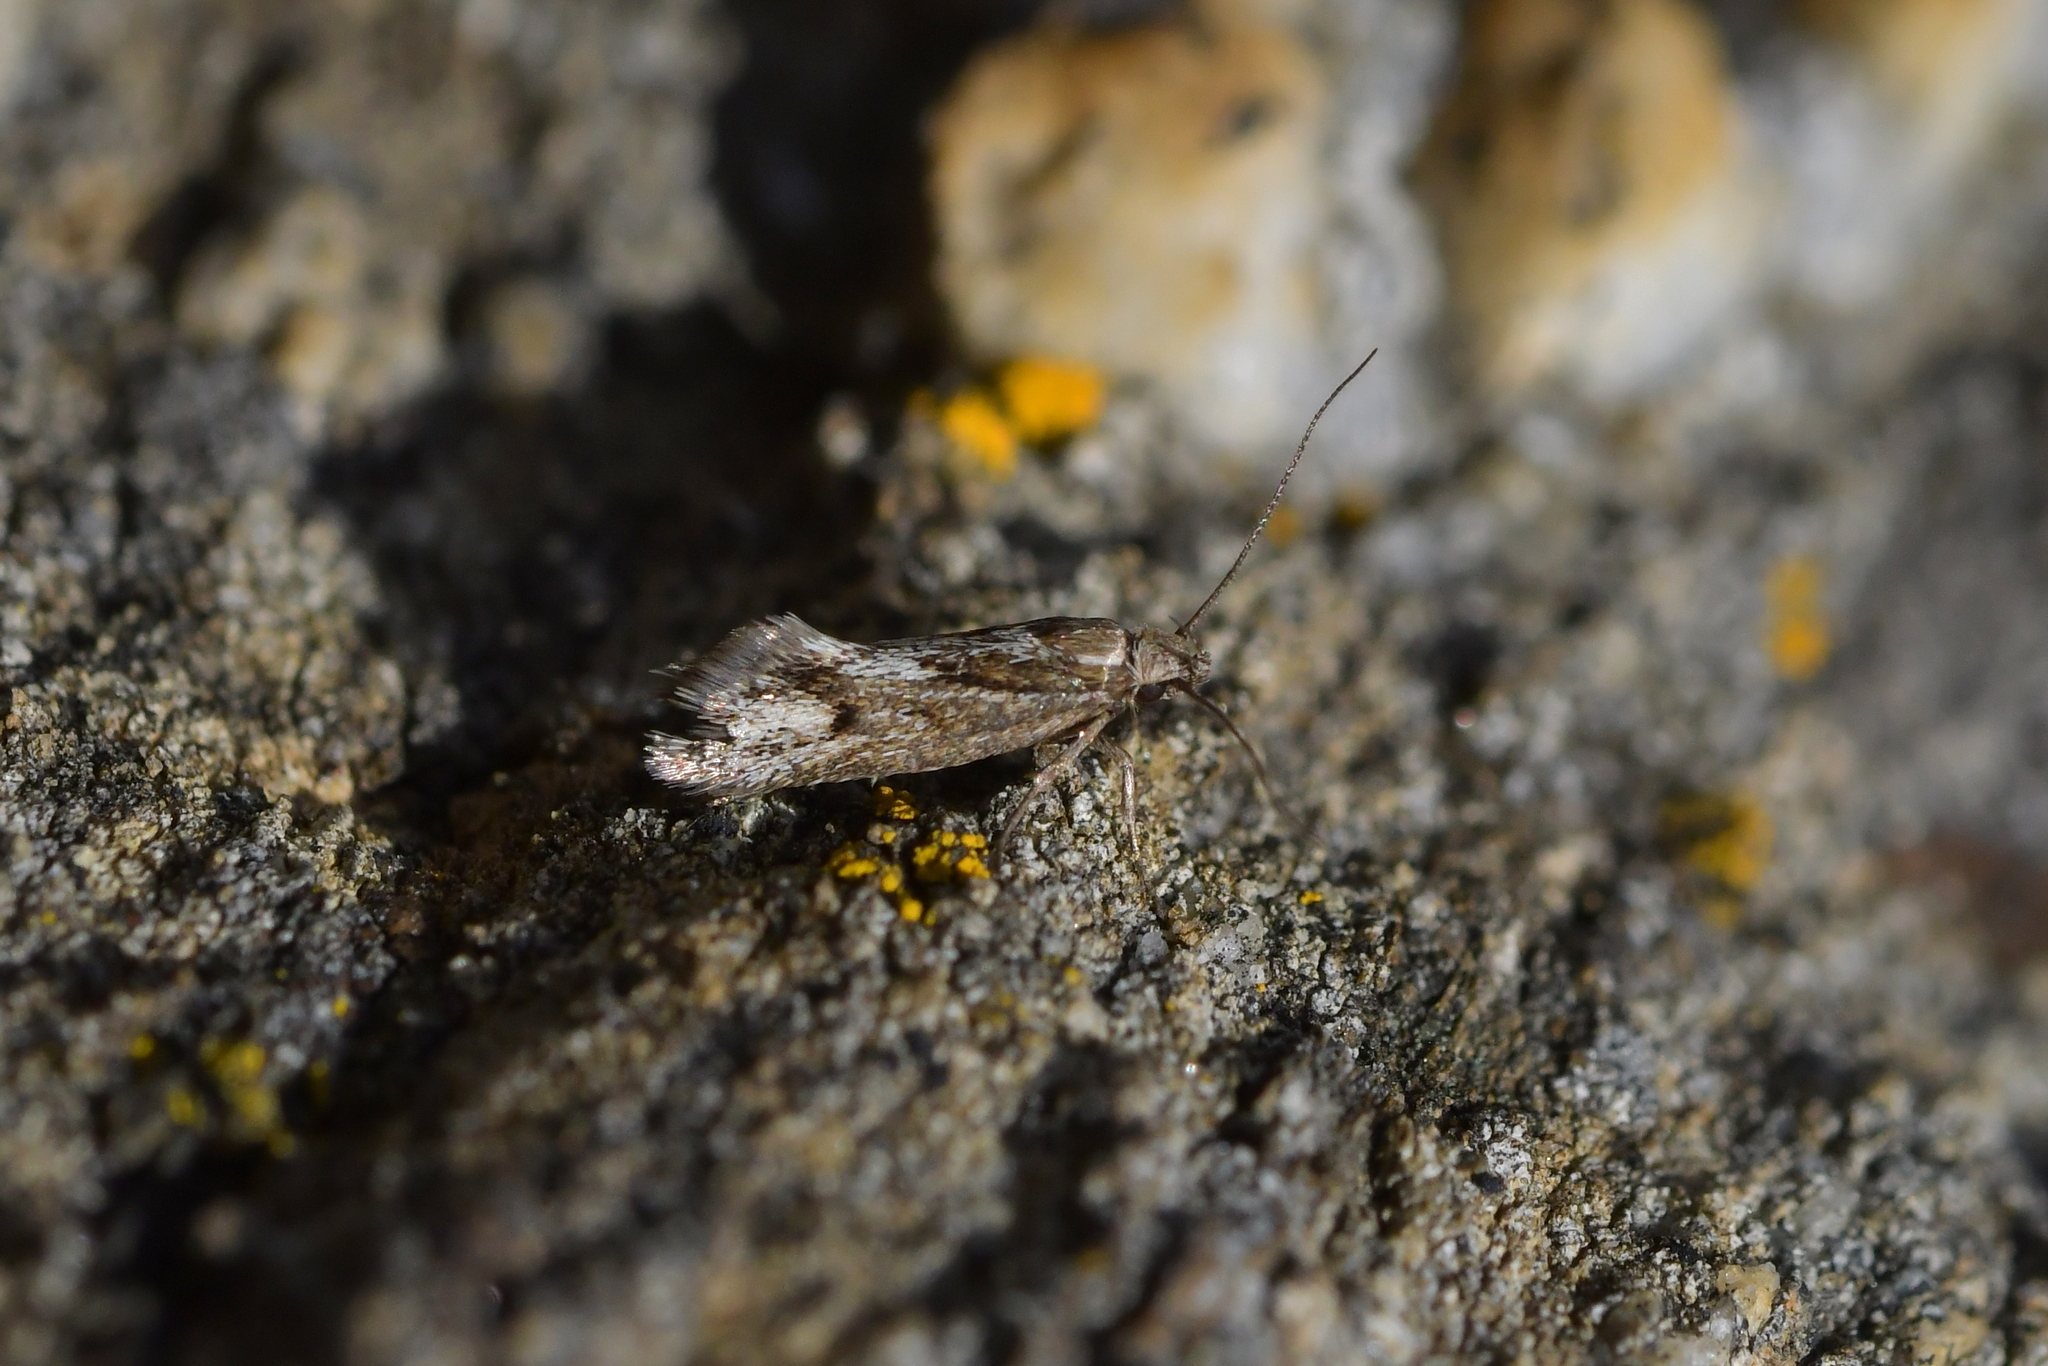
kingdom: Animalia
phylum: Arthropoda
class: Insecta
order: Lepidoptera
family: Oecophoridae
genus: Prepalla
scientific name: Prepalla
